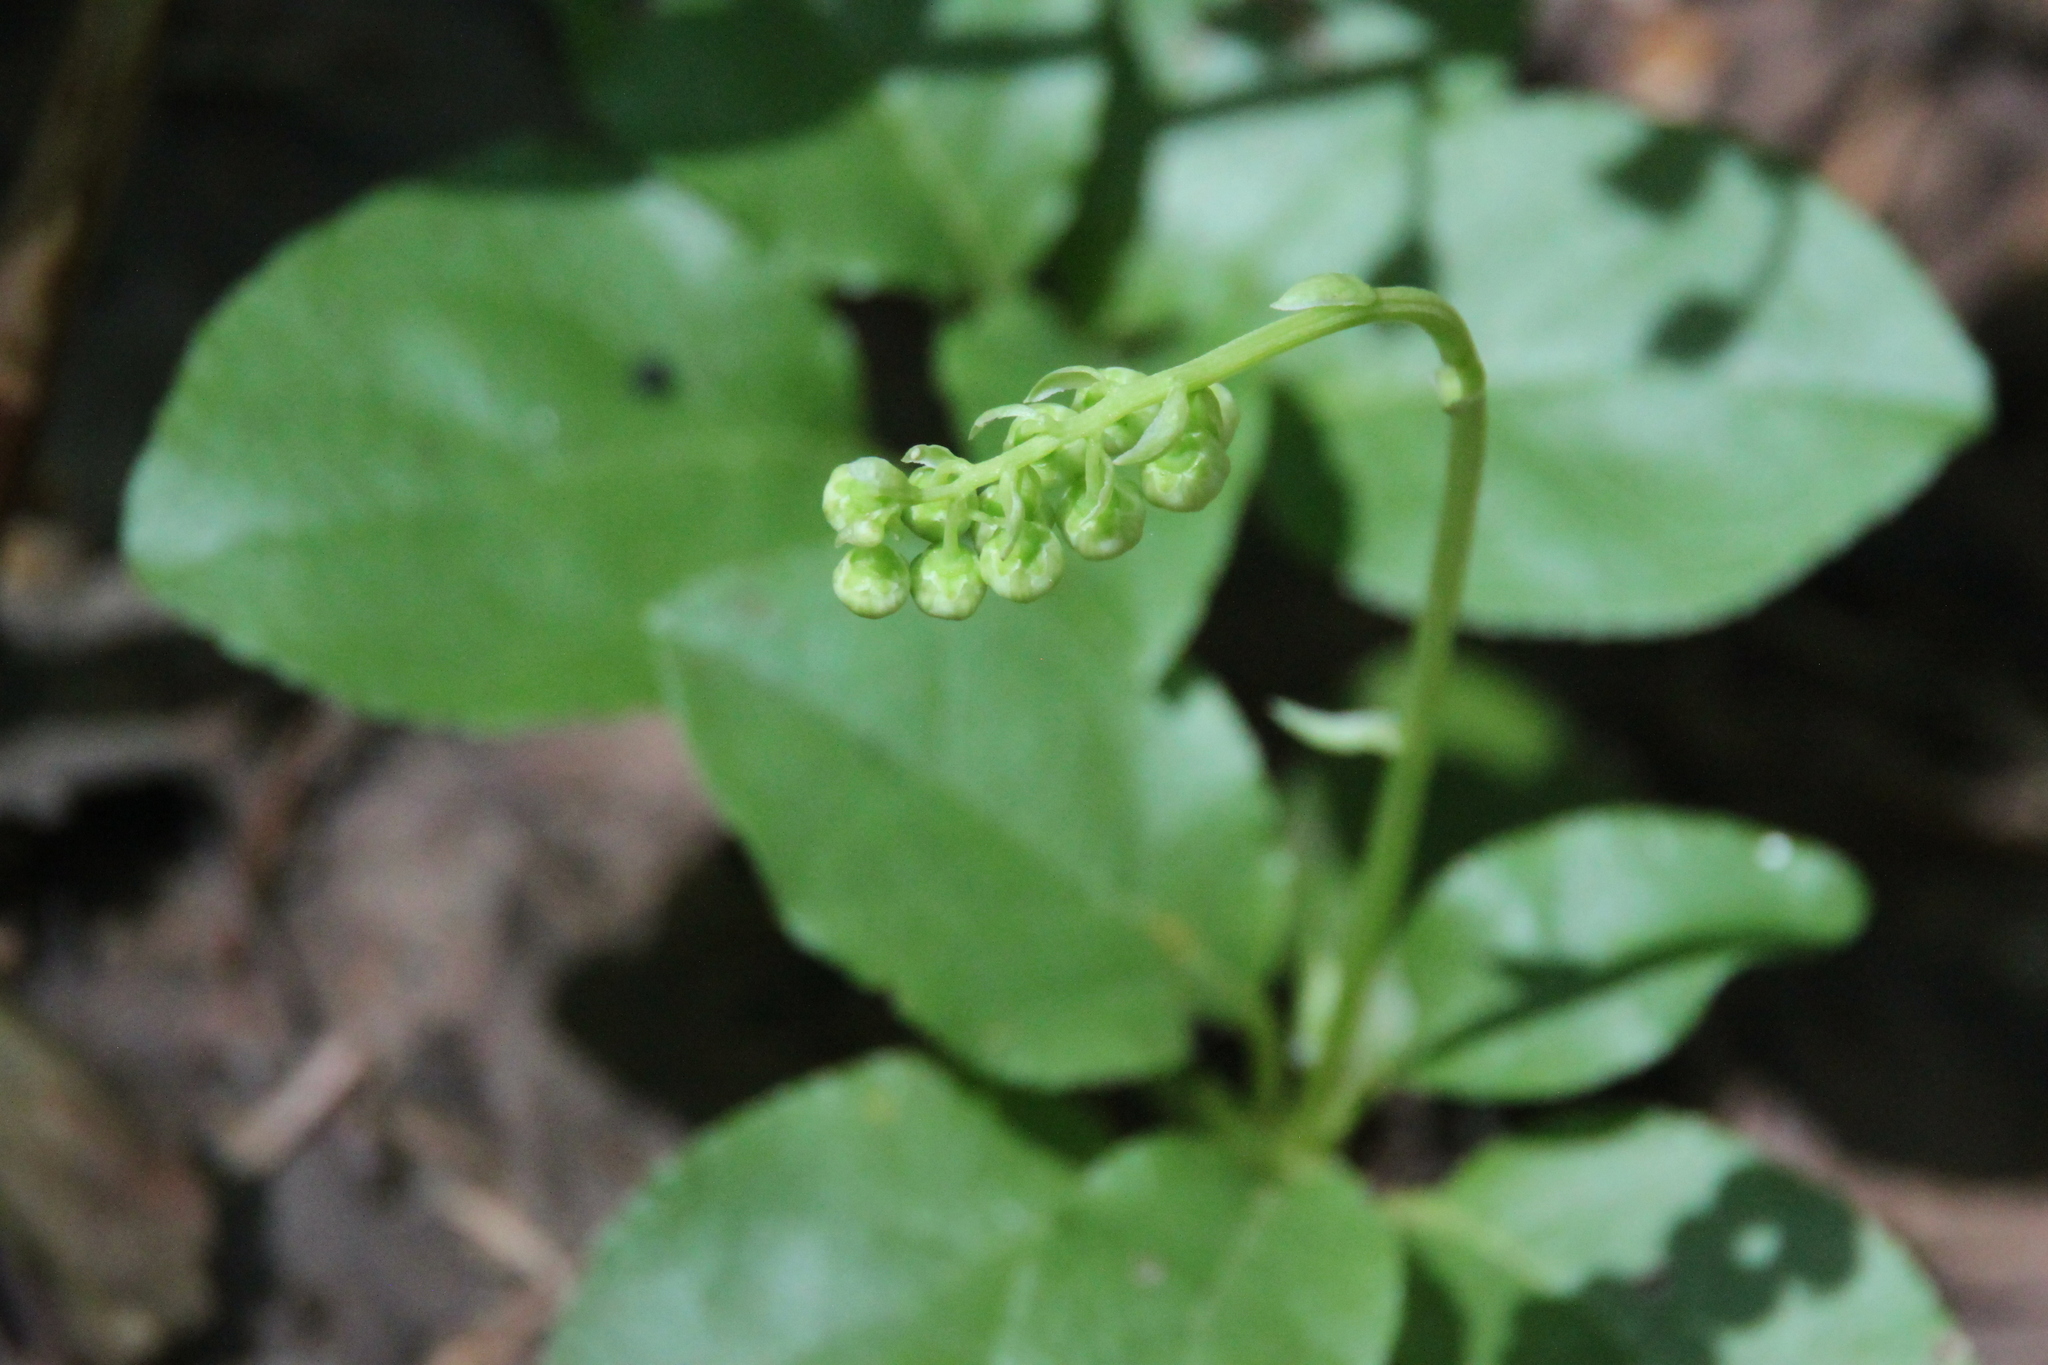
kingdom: Plantae
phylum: Tracheophyta
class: Magnoliopsida
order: Ericales
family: Ericaceae
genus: Orthilia
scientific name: Orthilia secunda
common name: One-sided orthilia
